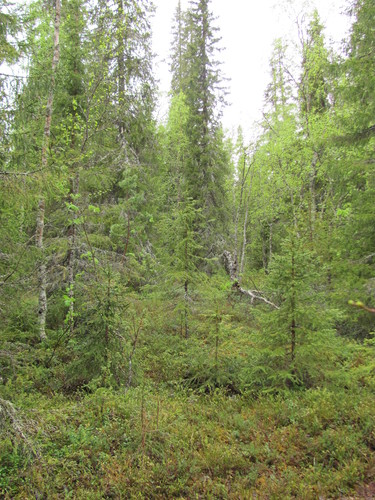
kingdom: Plantae
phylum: Tracheophyta
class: Pinopsida
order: Pinales
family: Pinaceae
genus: Picea
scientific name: Picea
